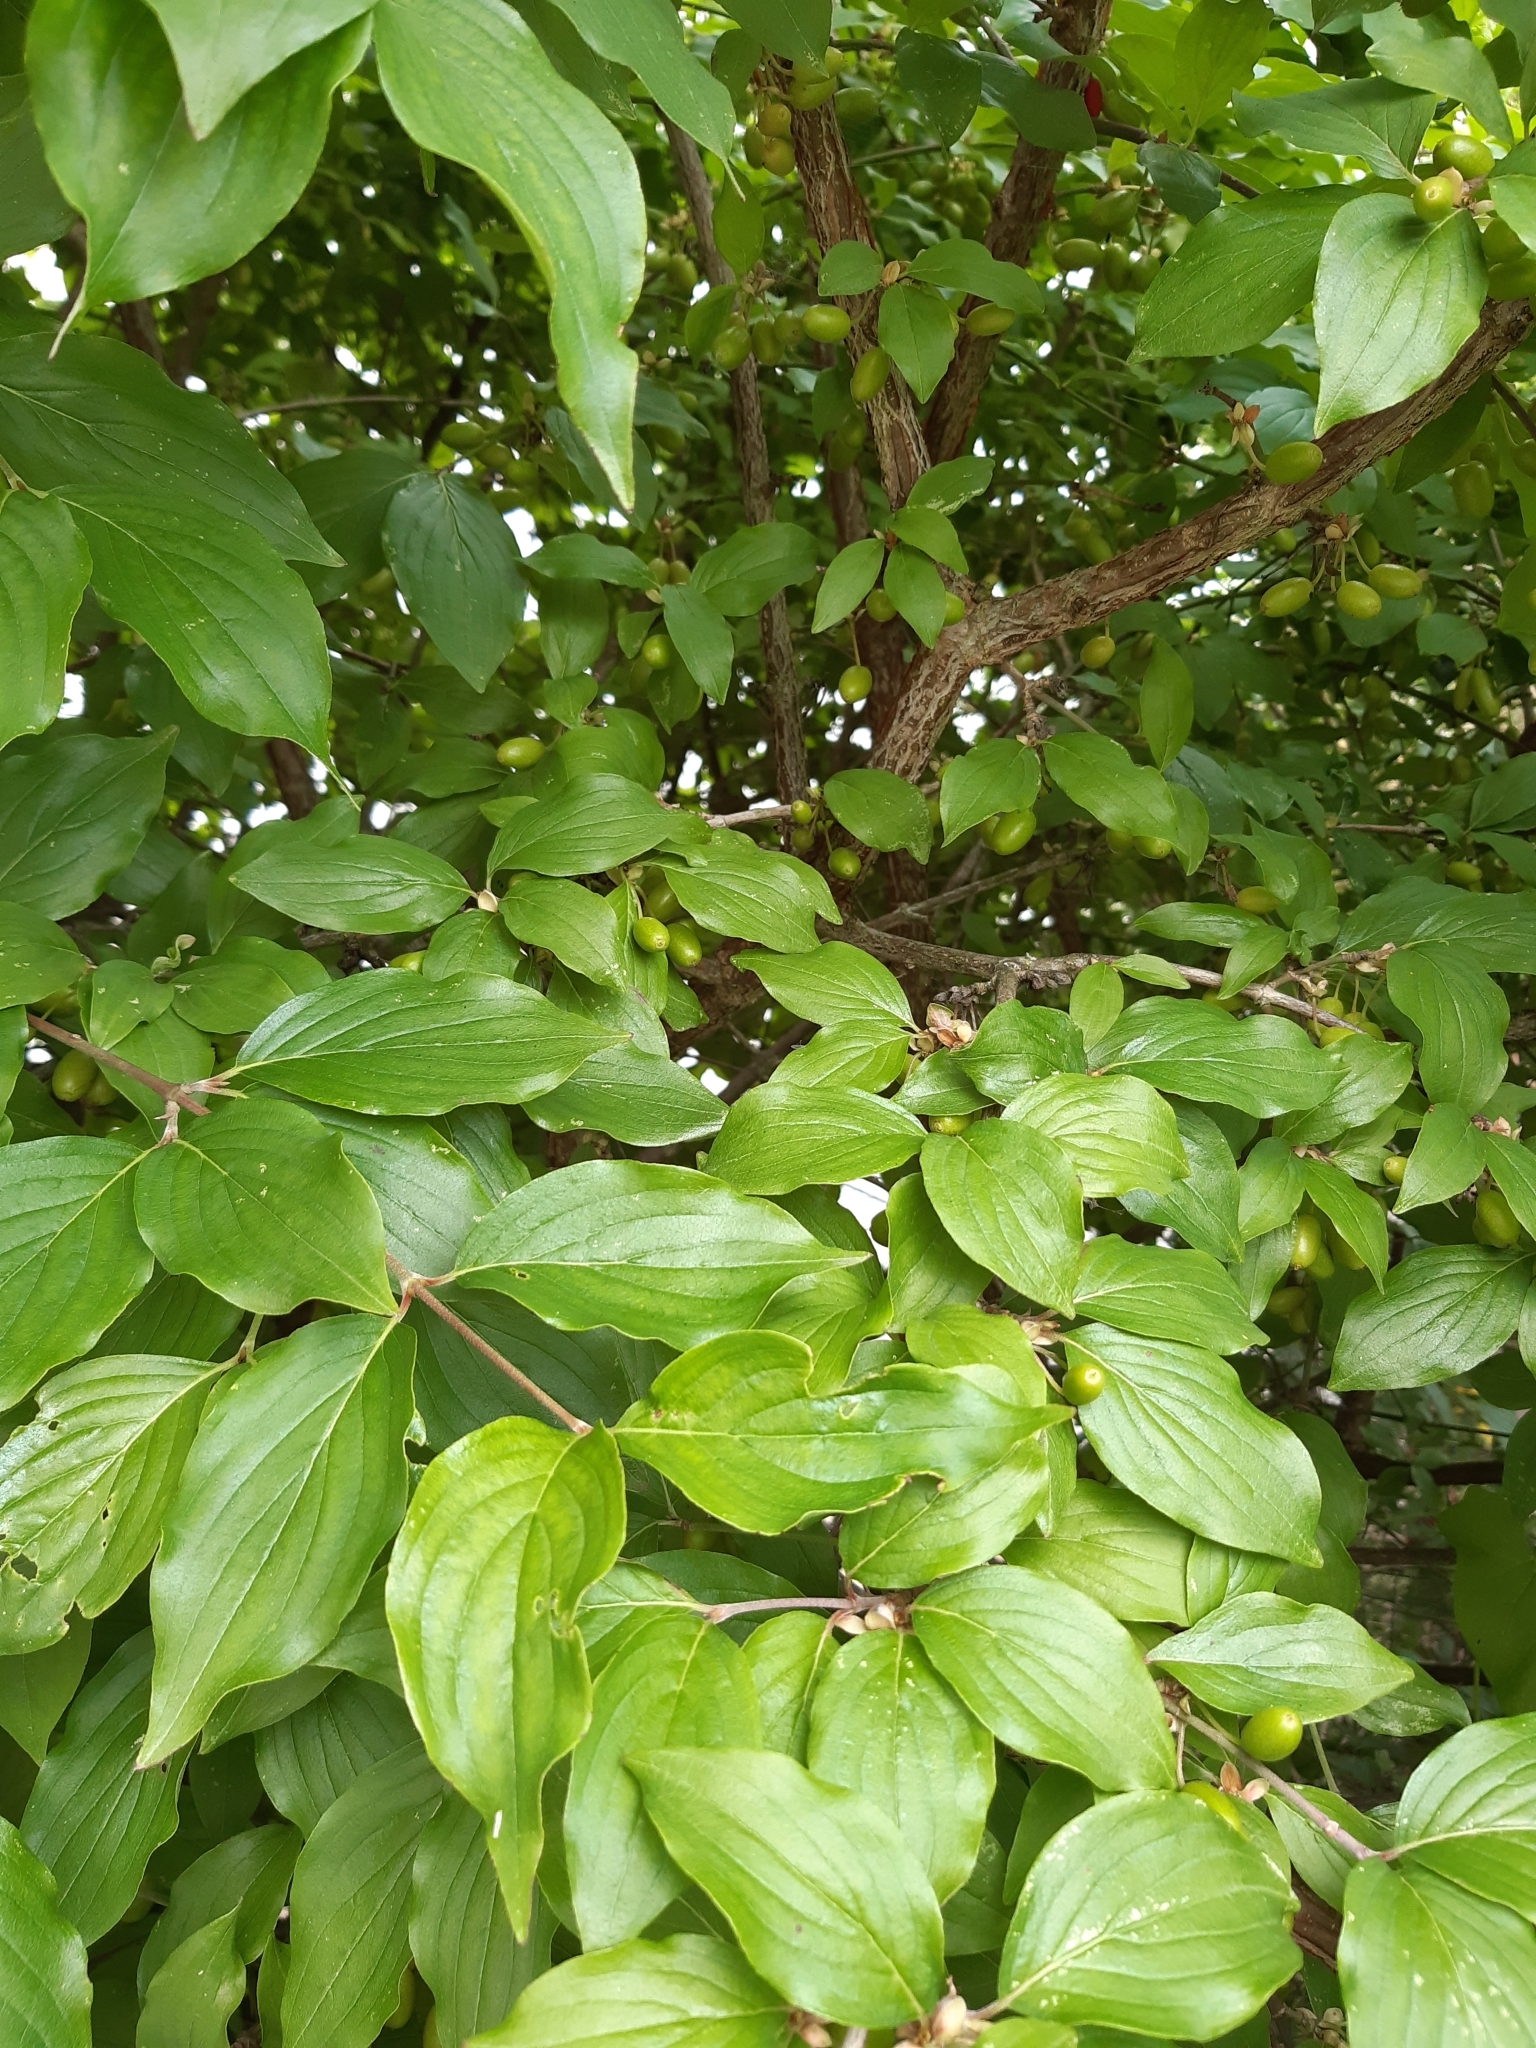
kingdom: Plantae
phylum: Tracheophyta
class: Magnoliopsida
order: Cornales
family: Cornaceae
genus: Cornus
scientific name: Cornus mas
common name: Cornelian-cherry
